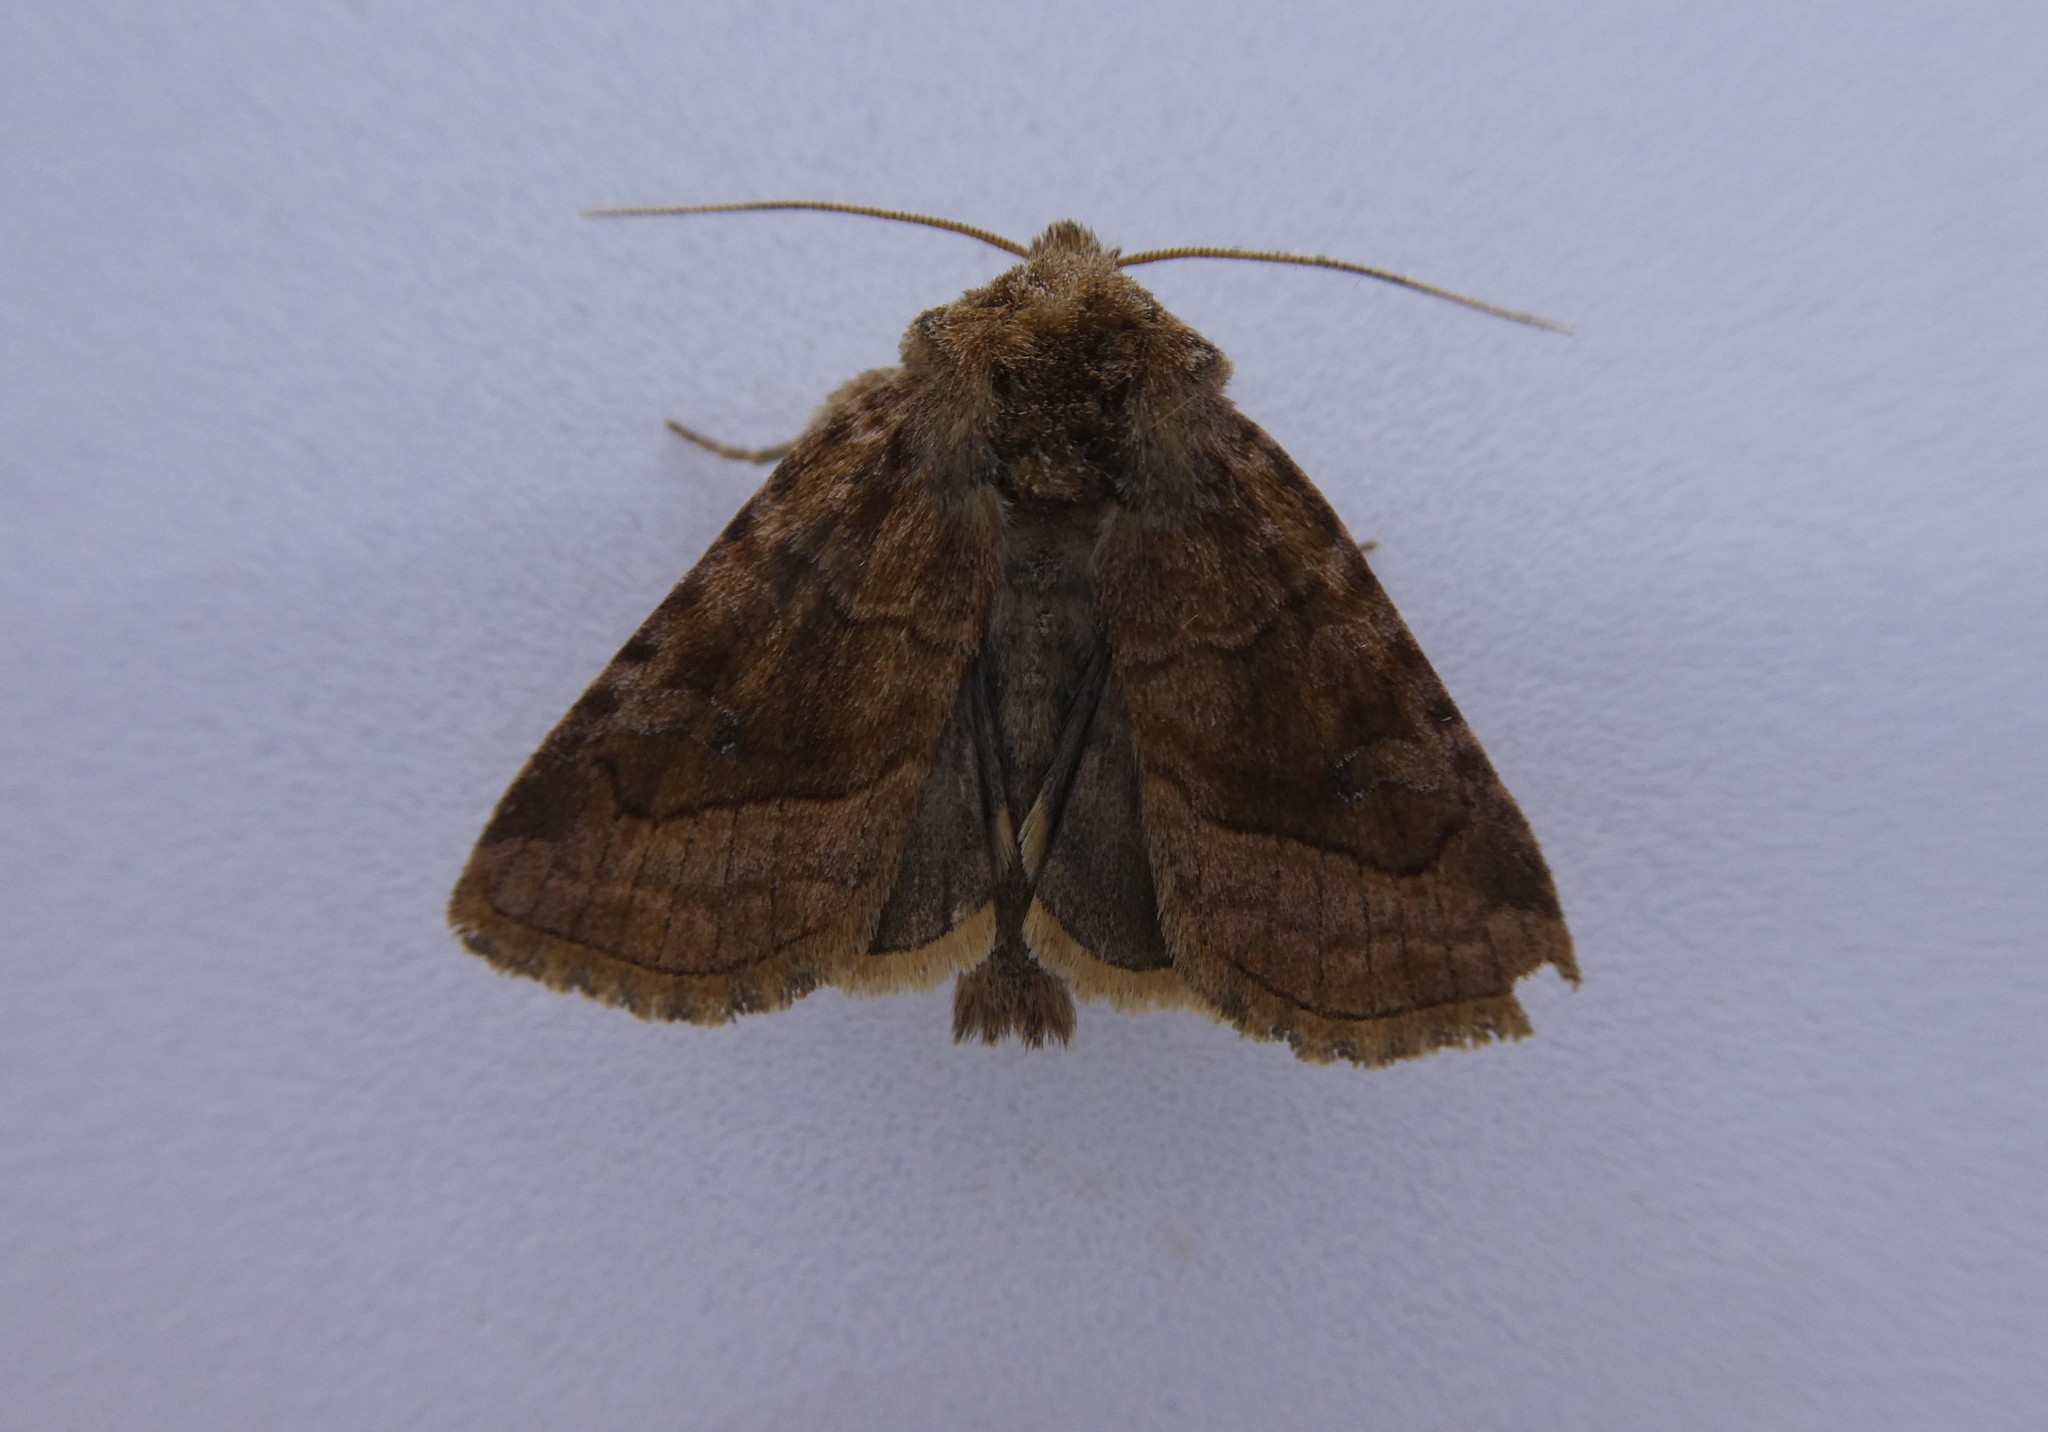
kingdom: Animalia
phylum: Arthropoda
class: Insecta
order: Lepidoptera
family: Noctuidae
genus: Lacinipolia
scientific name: Lacinipolia lorea
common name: Bridled arches moth
